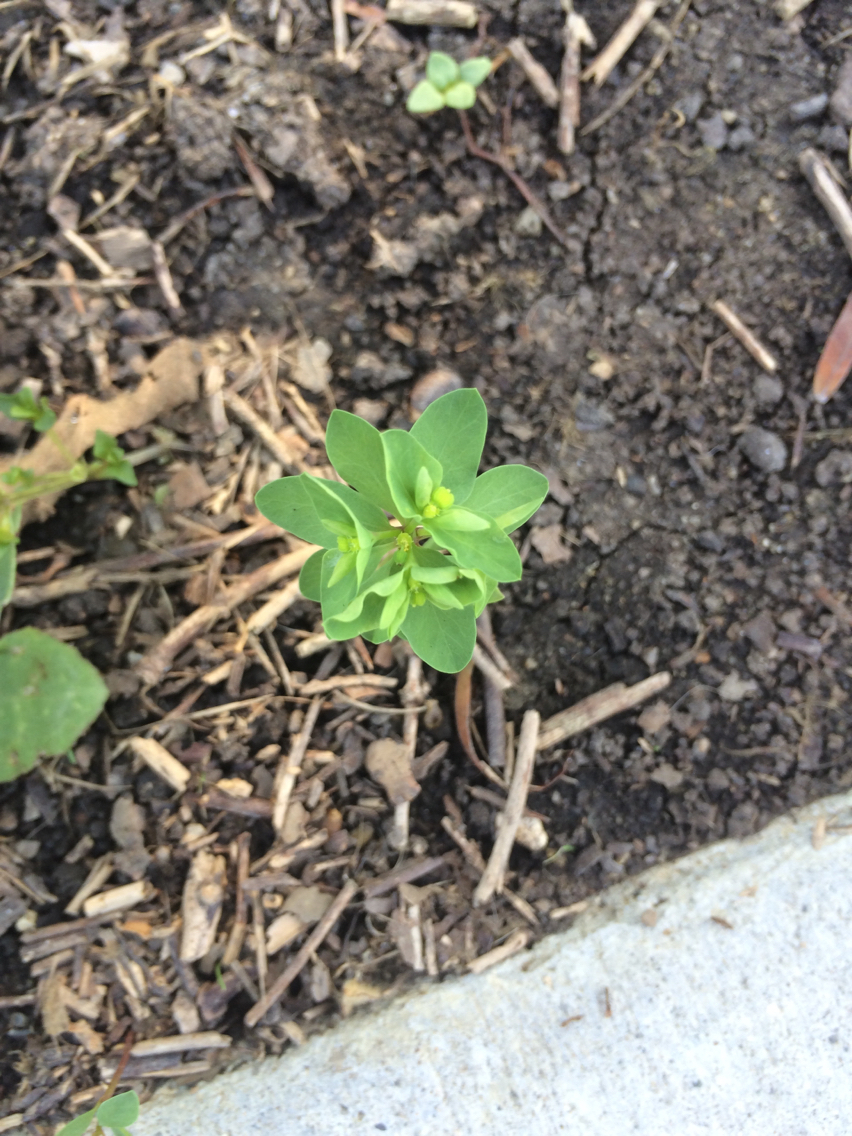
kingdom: Plantae
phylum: Tracheophyta
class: Magnoliopsida
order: Malpighiales
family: Euphorbiaceae
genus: Euphorbia
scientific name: Euphorbia peplus
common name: Petty spurge
